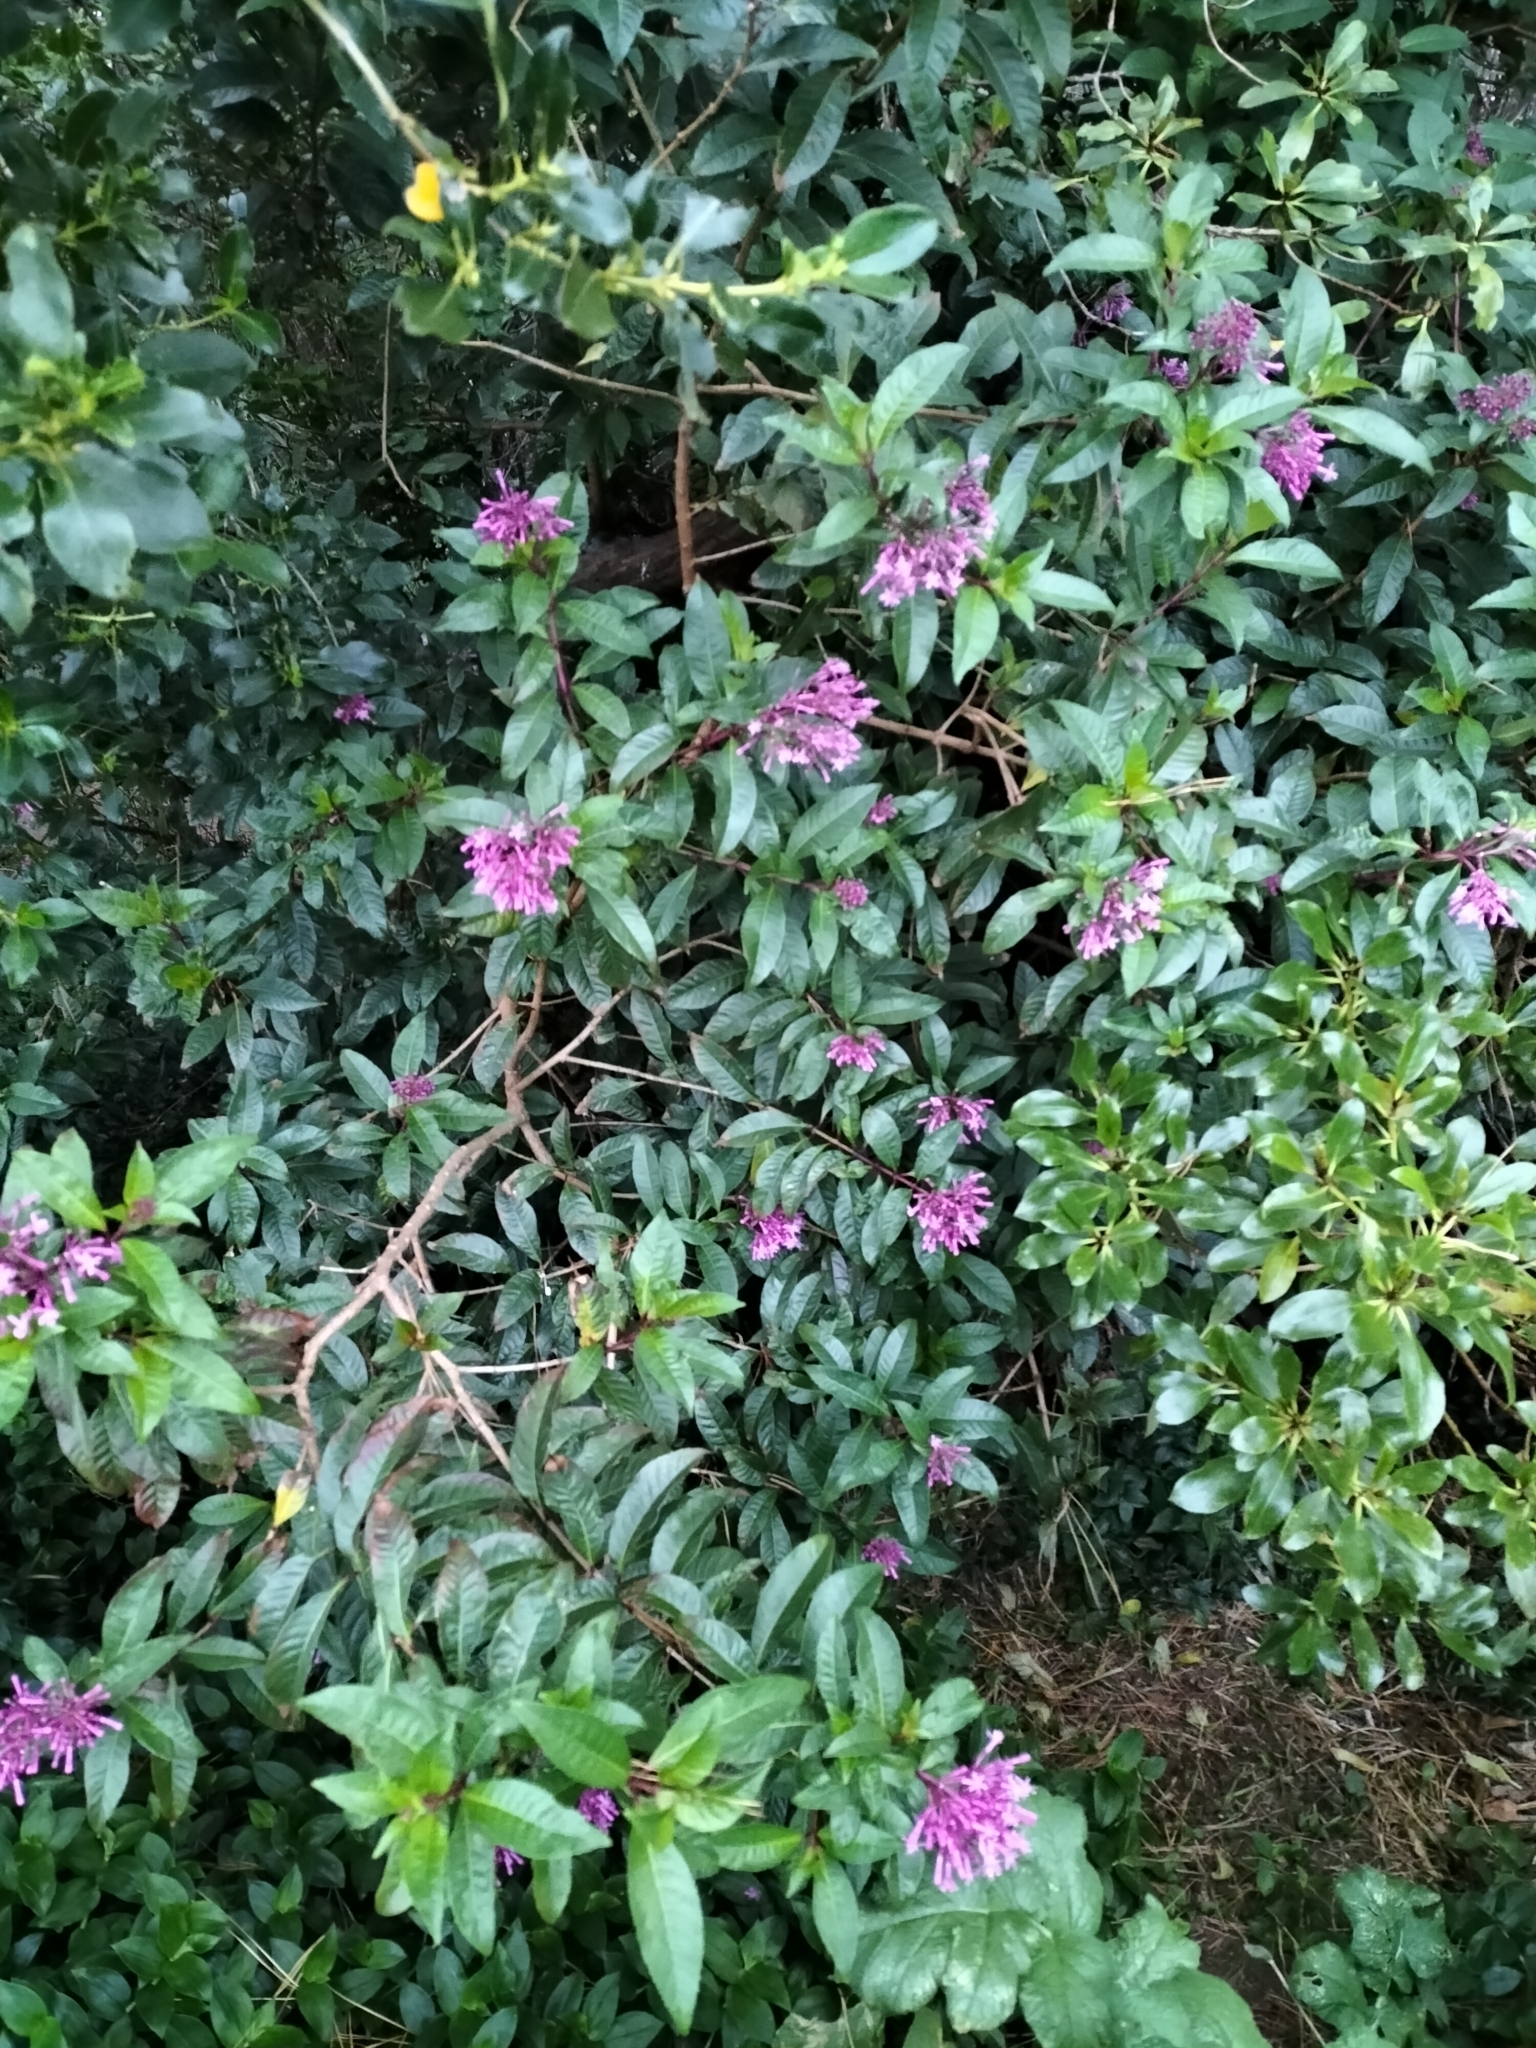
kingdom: Plantae
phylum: Tracheophyta
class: Magnoliopsida
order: Myrtales
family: Onagraceae
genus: Fuchsia
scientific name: Fuchsia paniculata
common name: Shrubby fuchsia
